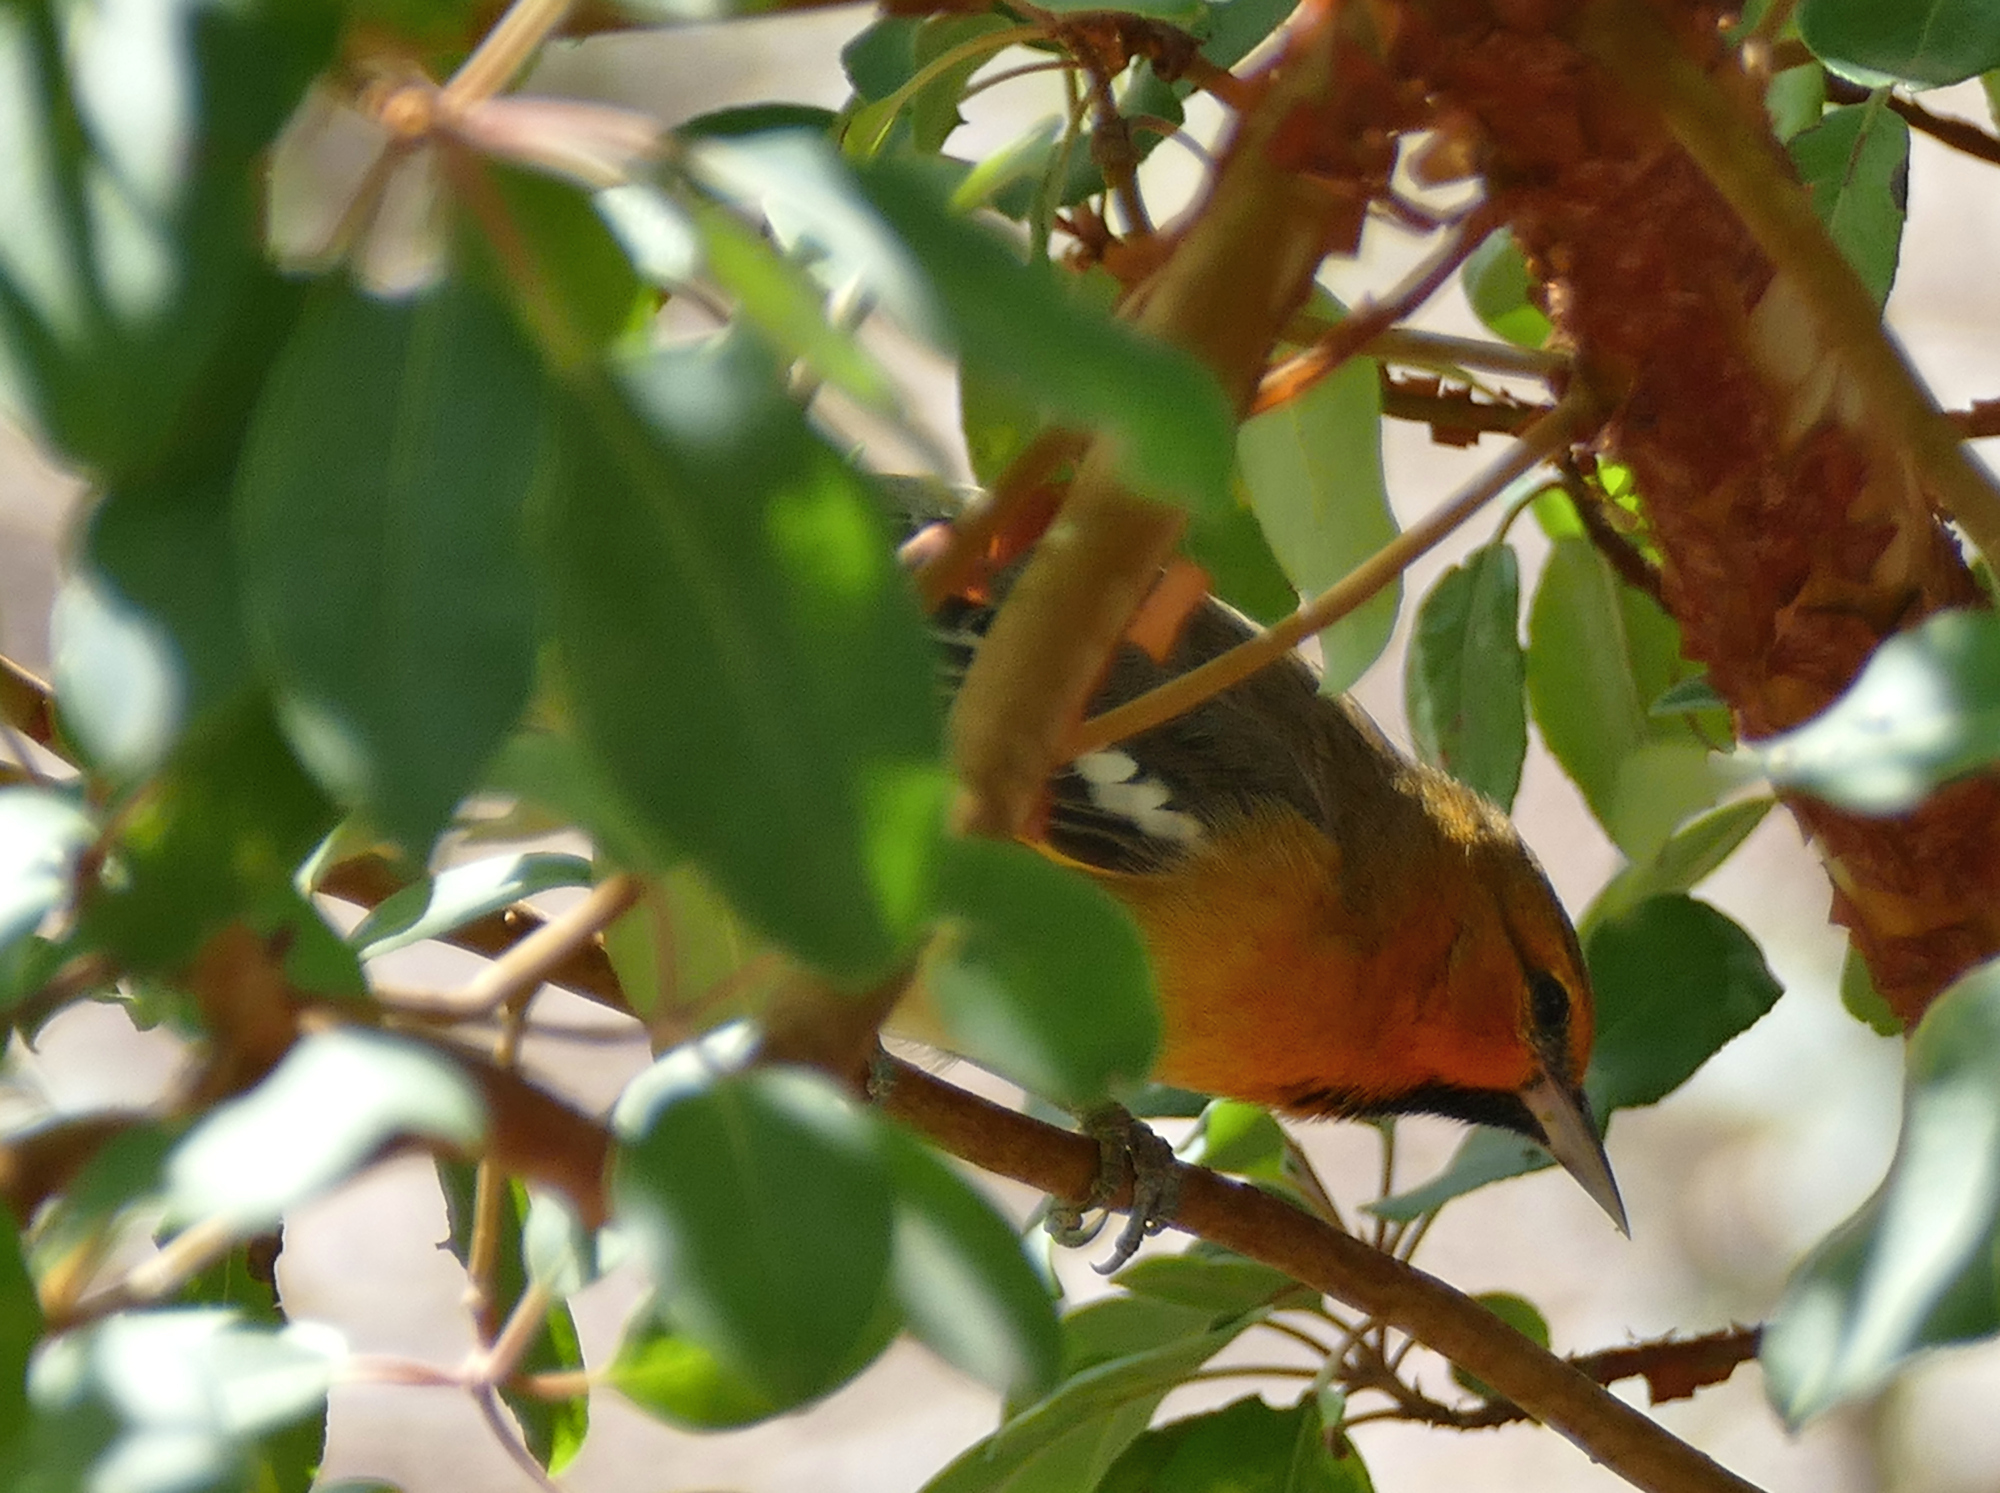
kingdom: Animalia
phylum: Chordata
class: Aves
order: Passeriformes
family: Icteridae
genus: Icterus
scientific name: Icterus bullockii
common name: Bullock's oriole
